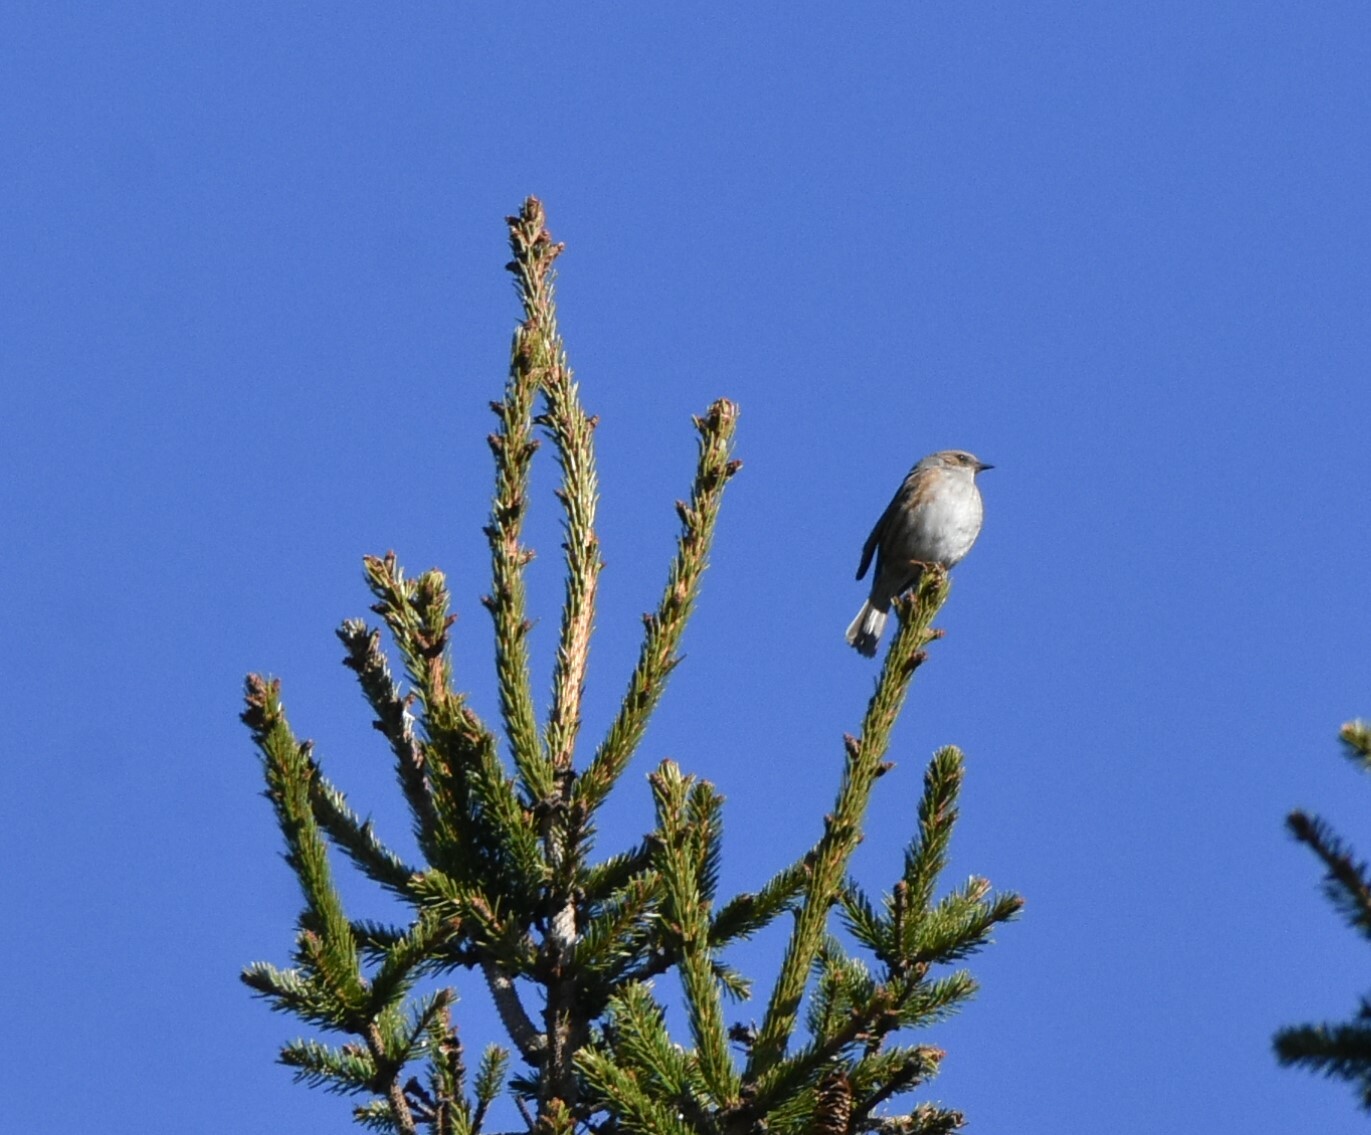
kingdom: Animalia
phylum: Chordata
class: Aves
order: Passeriformes
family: Prunellidae
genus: Prunella
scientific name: Prunella modularis
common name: Dunnock
